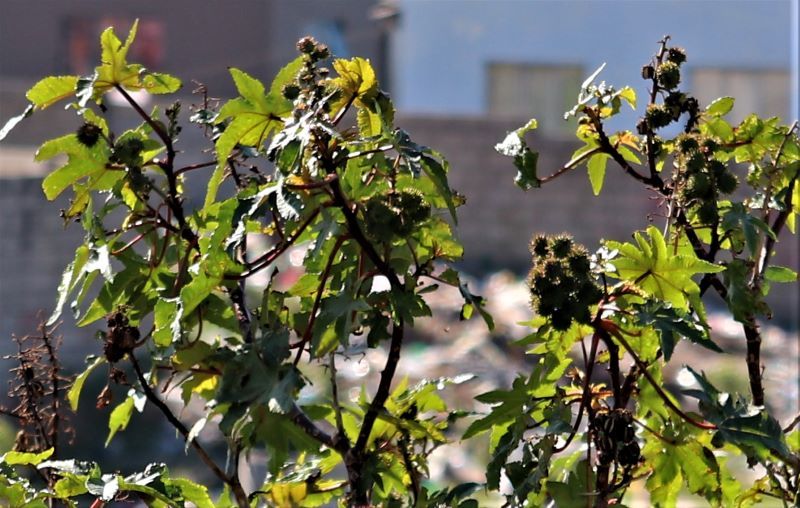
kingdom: Plantae
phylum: Tracheophyta
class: Magnoliopsida
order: Malpighiales
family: Euphorbiaceae
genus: Ricinus
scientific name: Ricinus communis
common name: Castor-oil-plant
